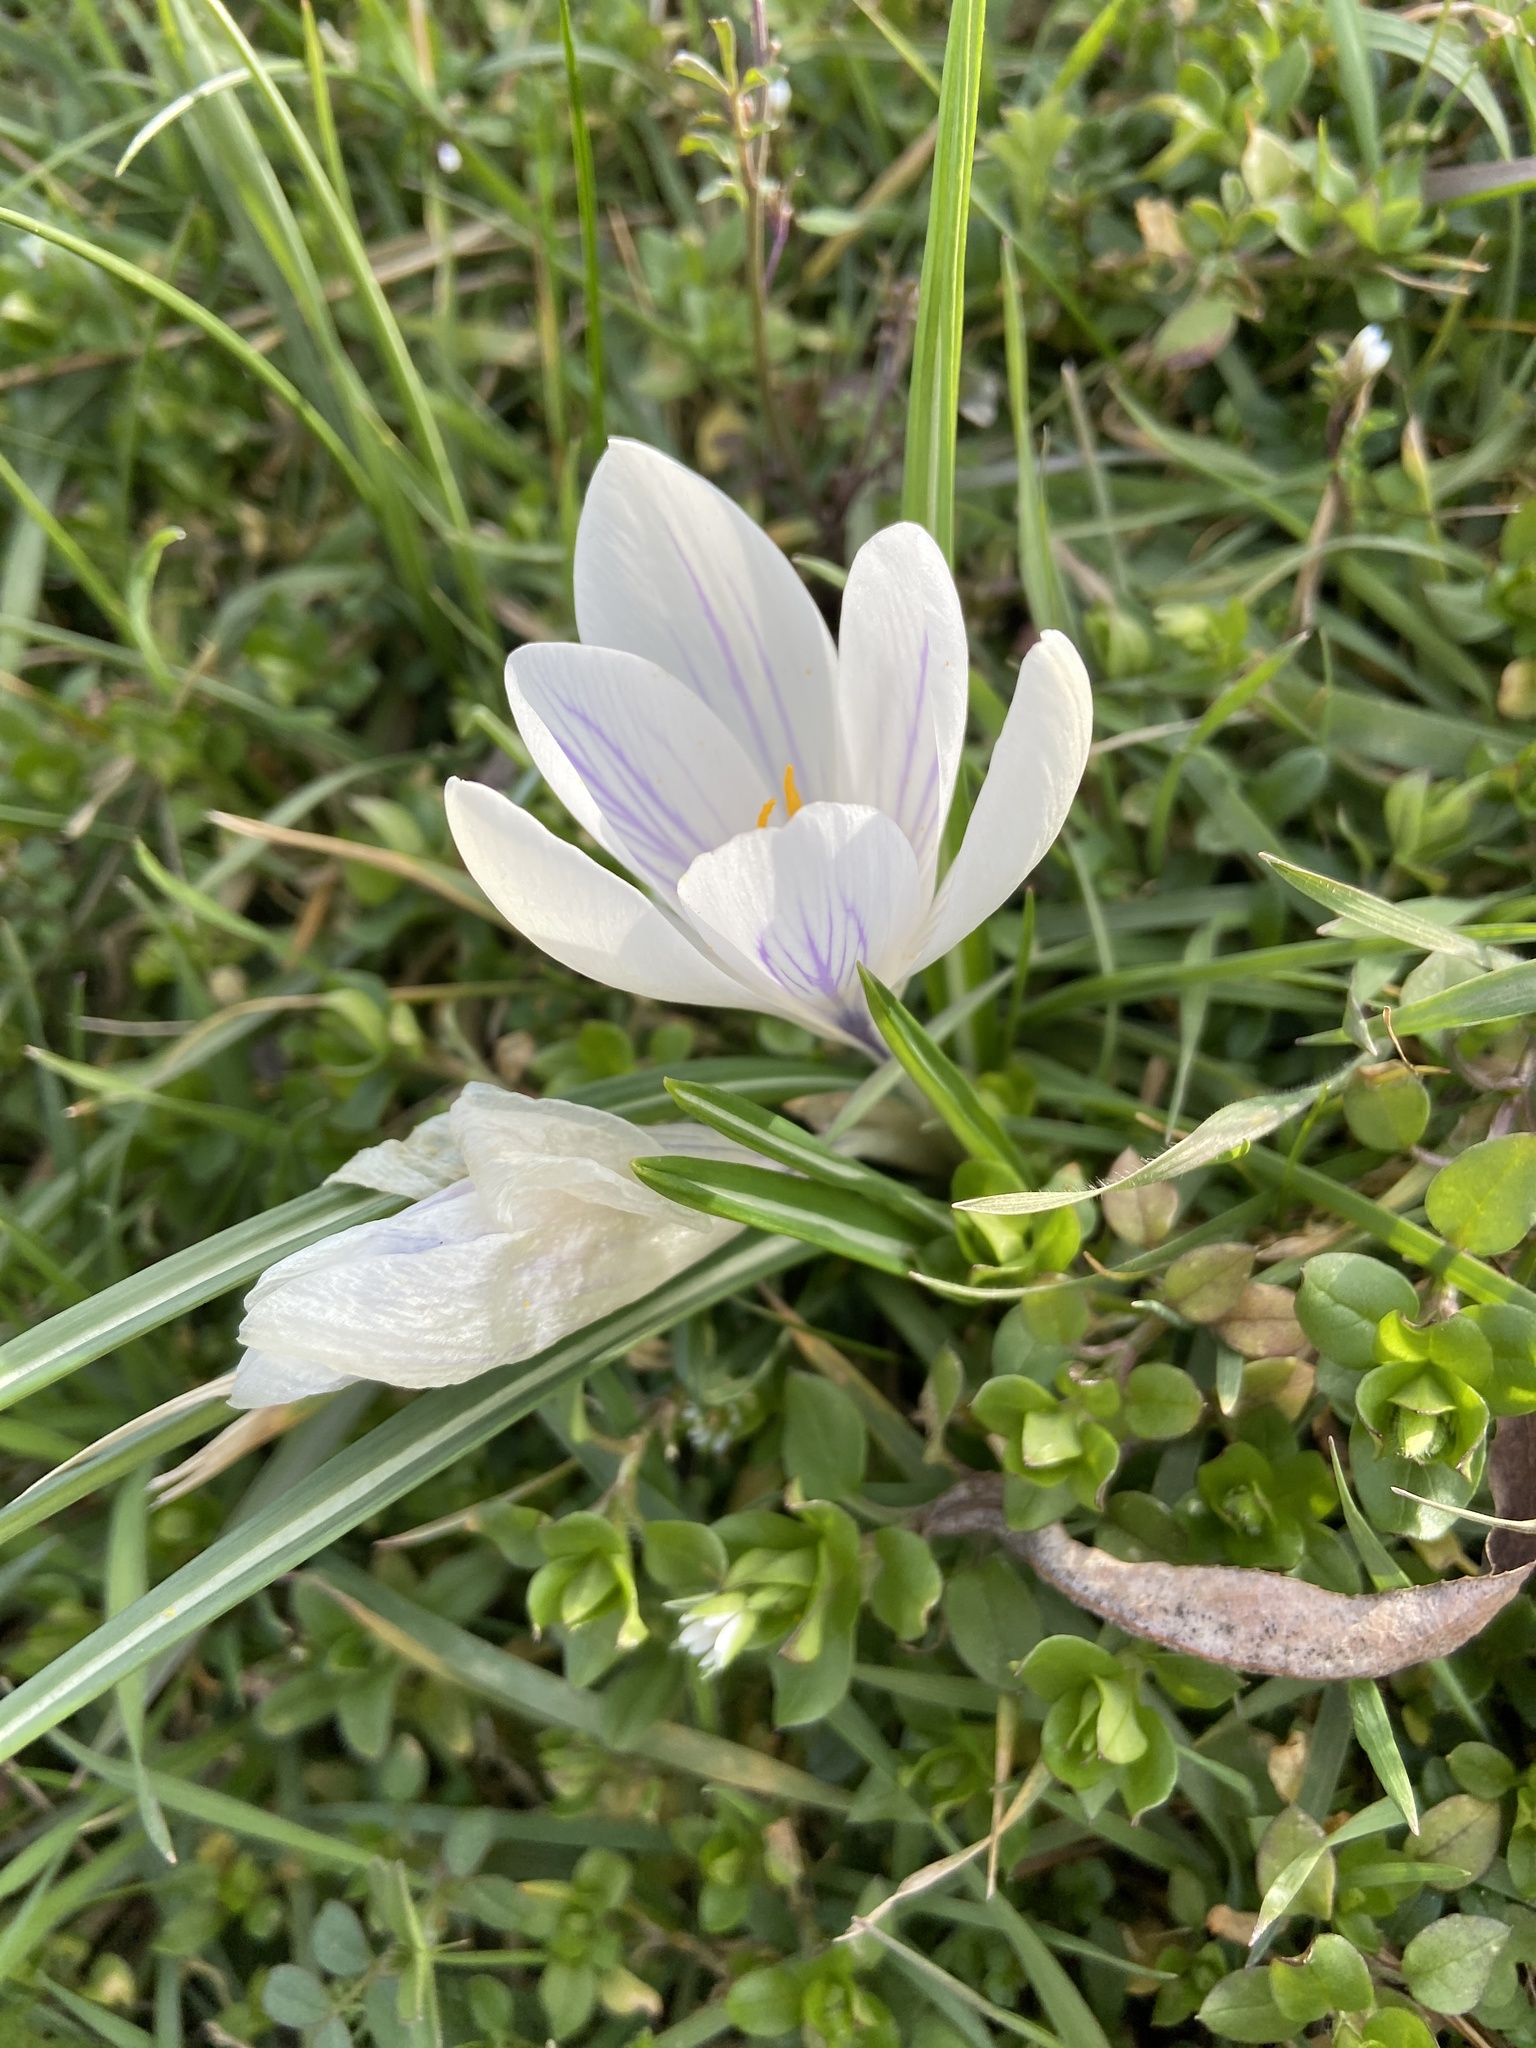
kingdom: Plantae
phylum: Tracheophyta
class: Liliopsida
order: Asparagales
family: Iridaceae
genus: Crocus
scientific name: Crocus vernus
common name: Spring crocus
